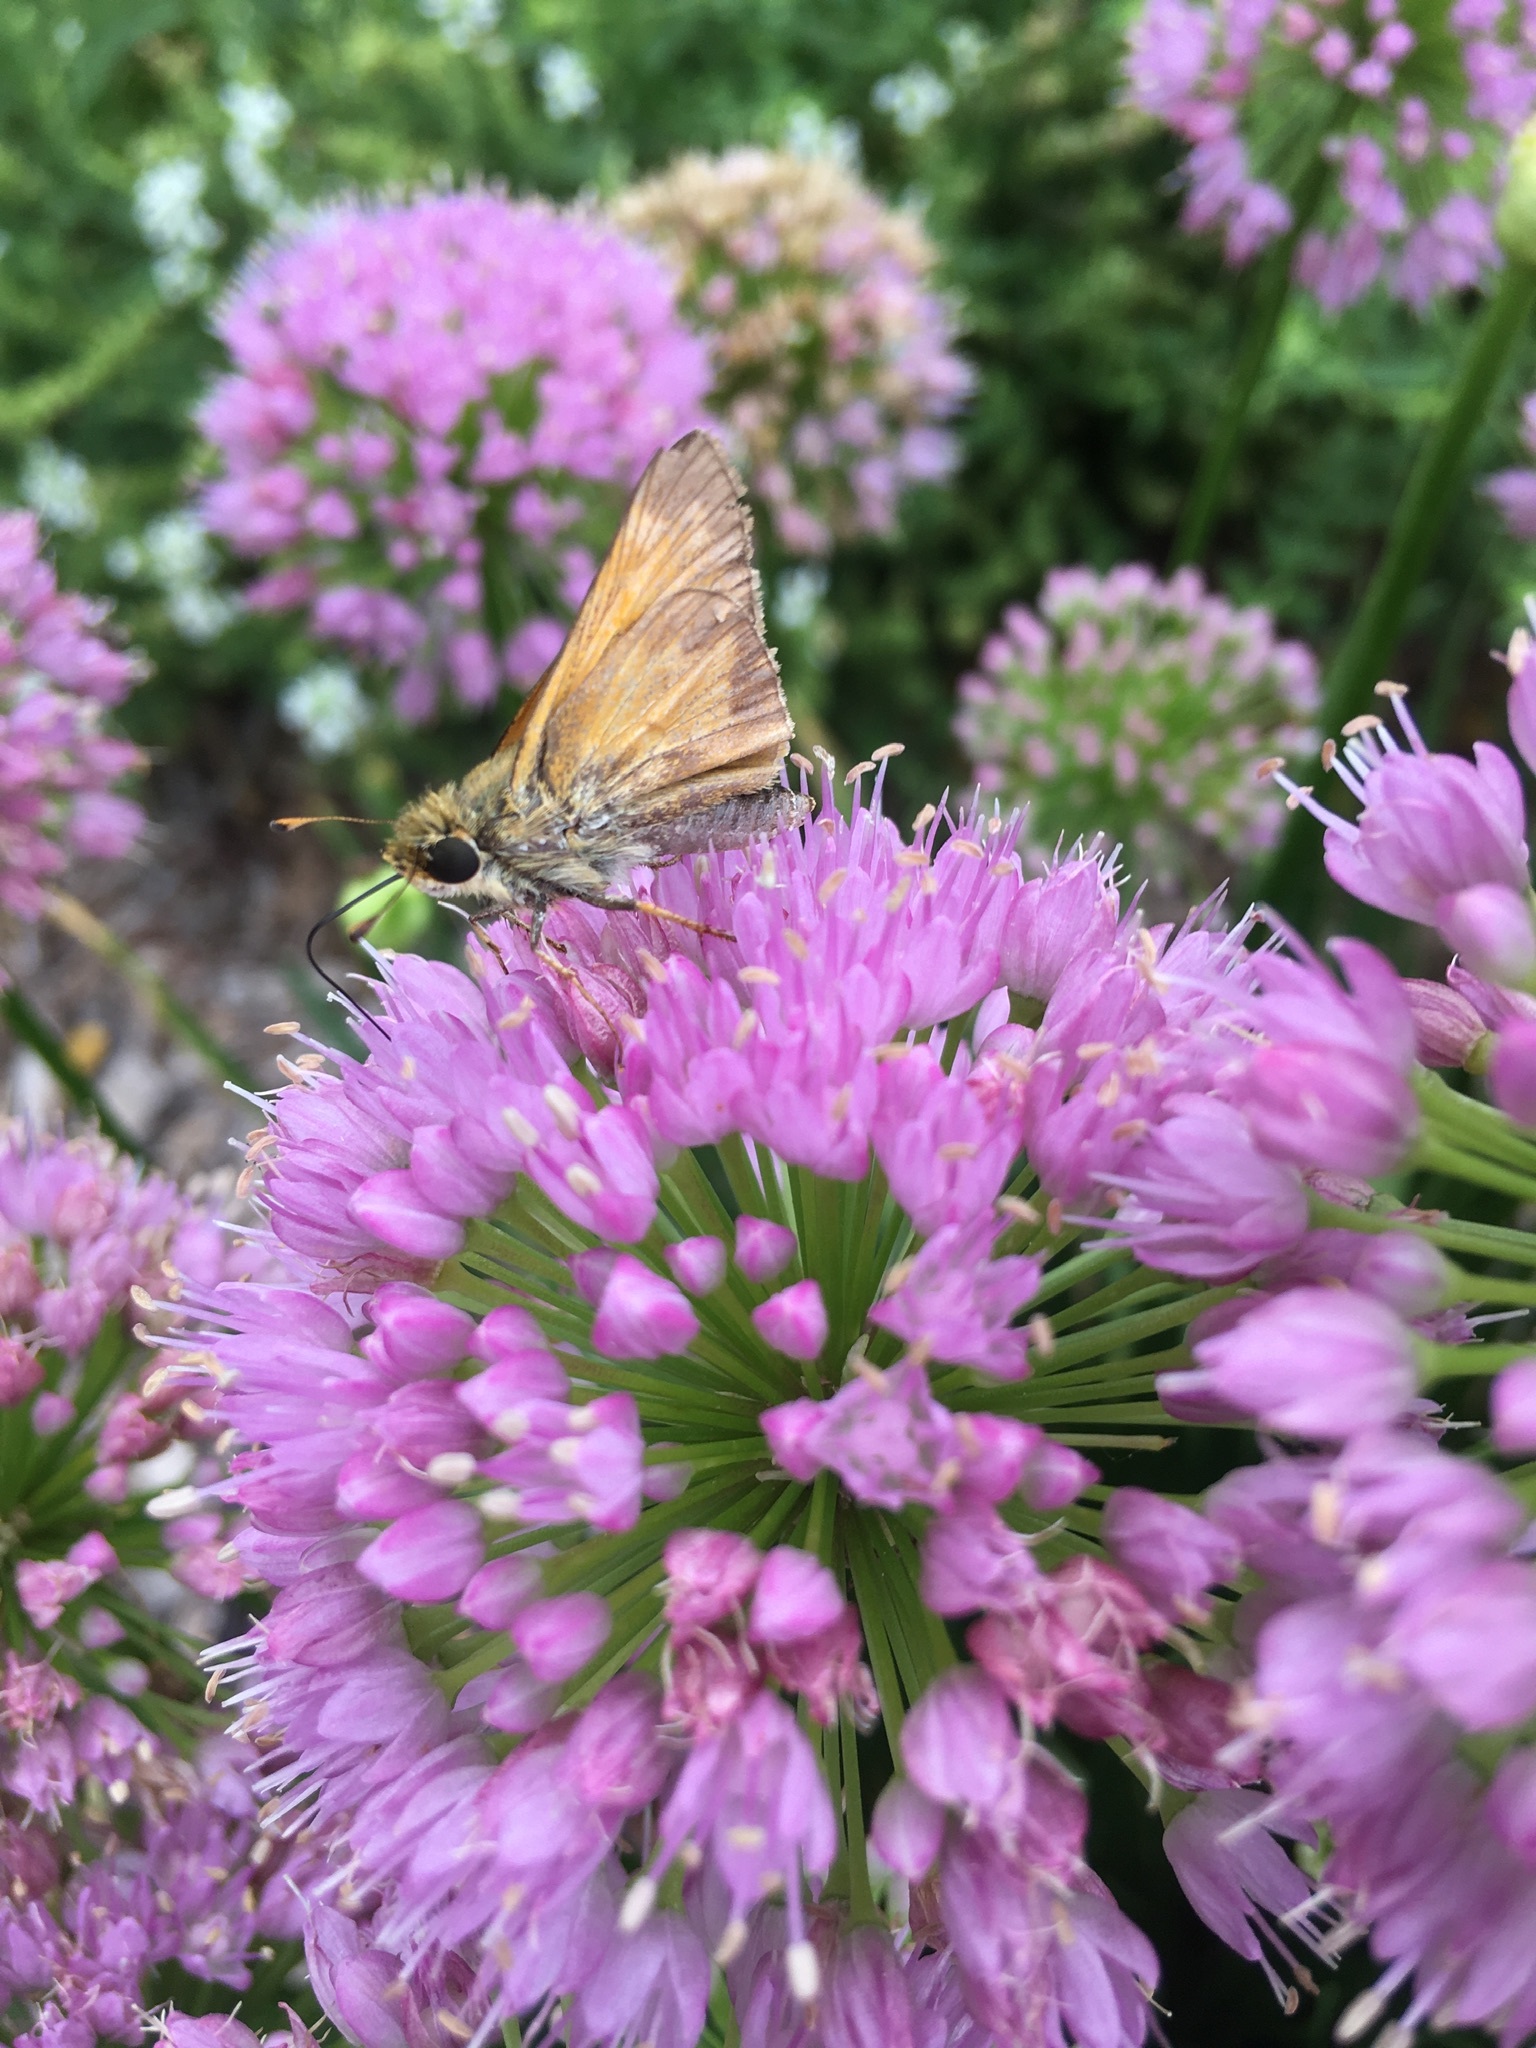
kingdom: Animalia
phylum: Arthropoda
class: Insecta
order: Lepidoptera
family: Hesperiidae
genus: Atalopedes
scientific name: Atalopedes
